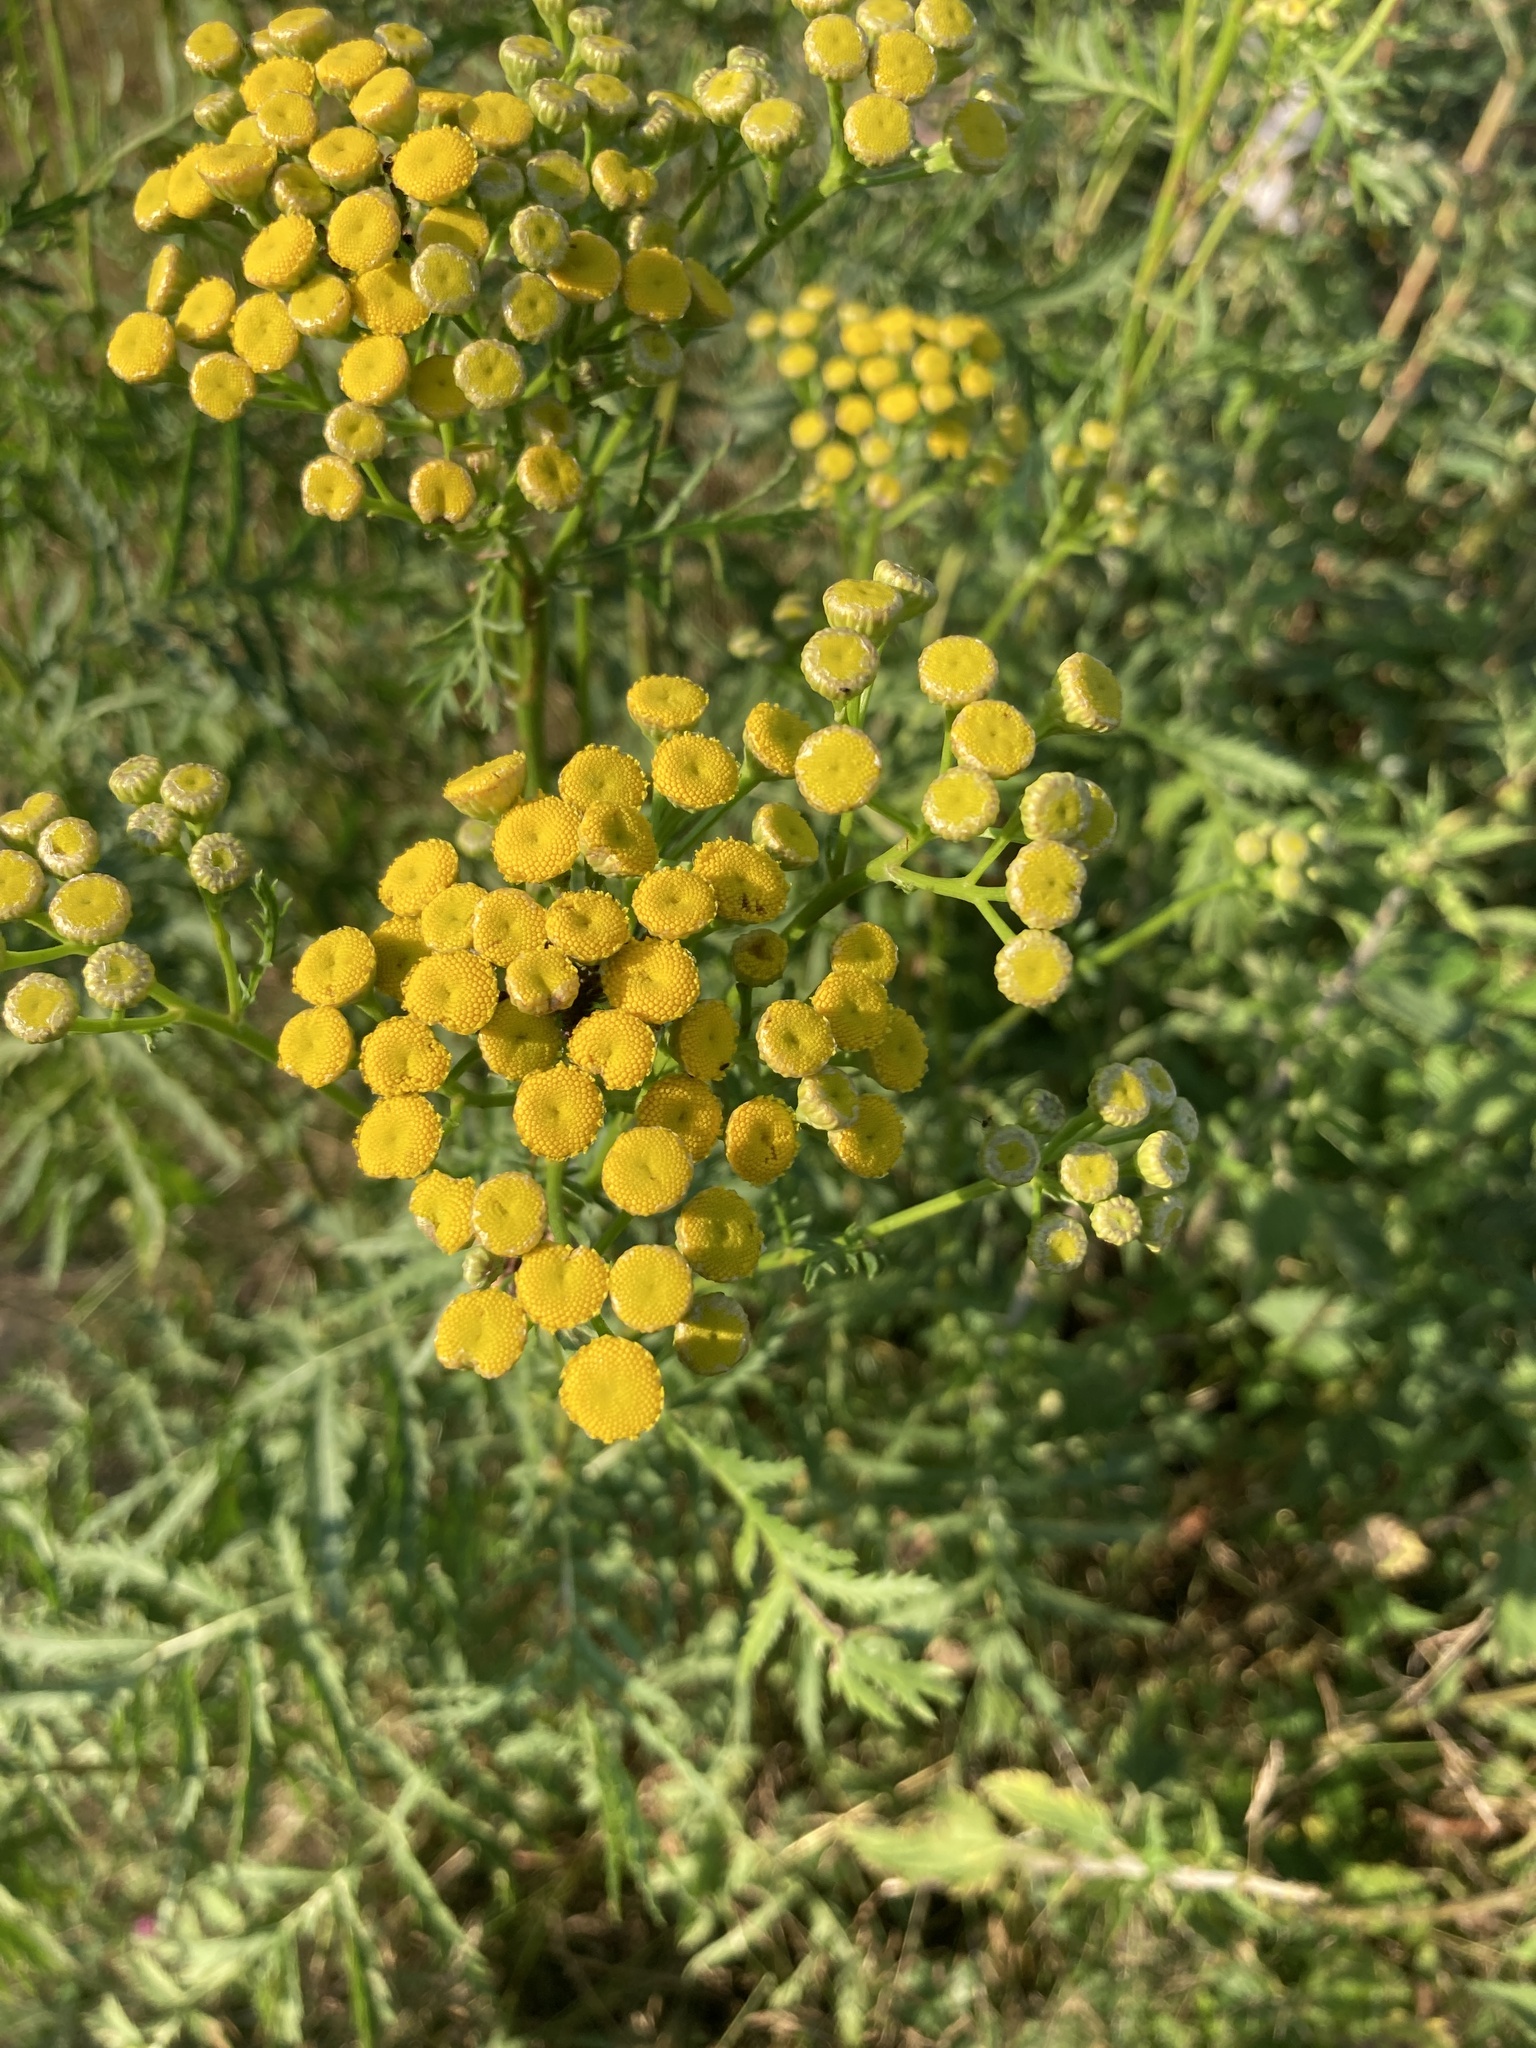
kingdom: Plantae
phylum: Tracheophyta
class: Magnoliopsida
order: Asterales
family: Asteraceae
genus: Tanacetum
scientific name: Tanacetum vulgare
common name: Common tansy
